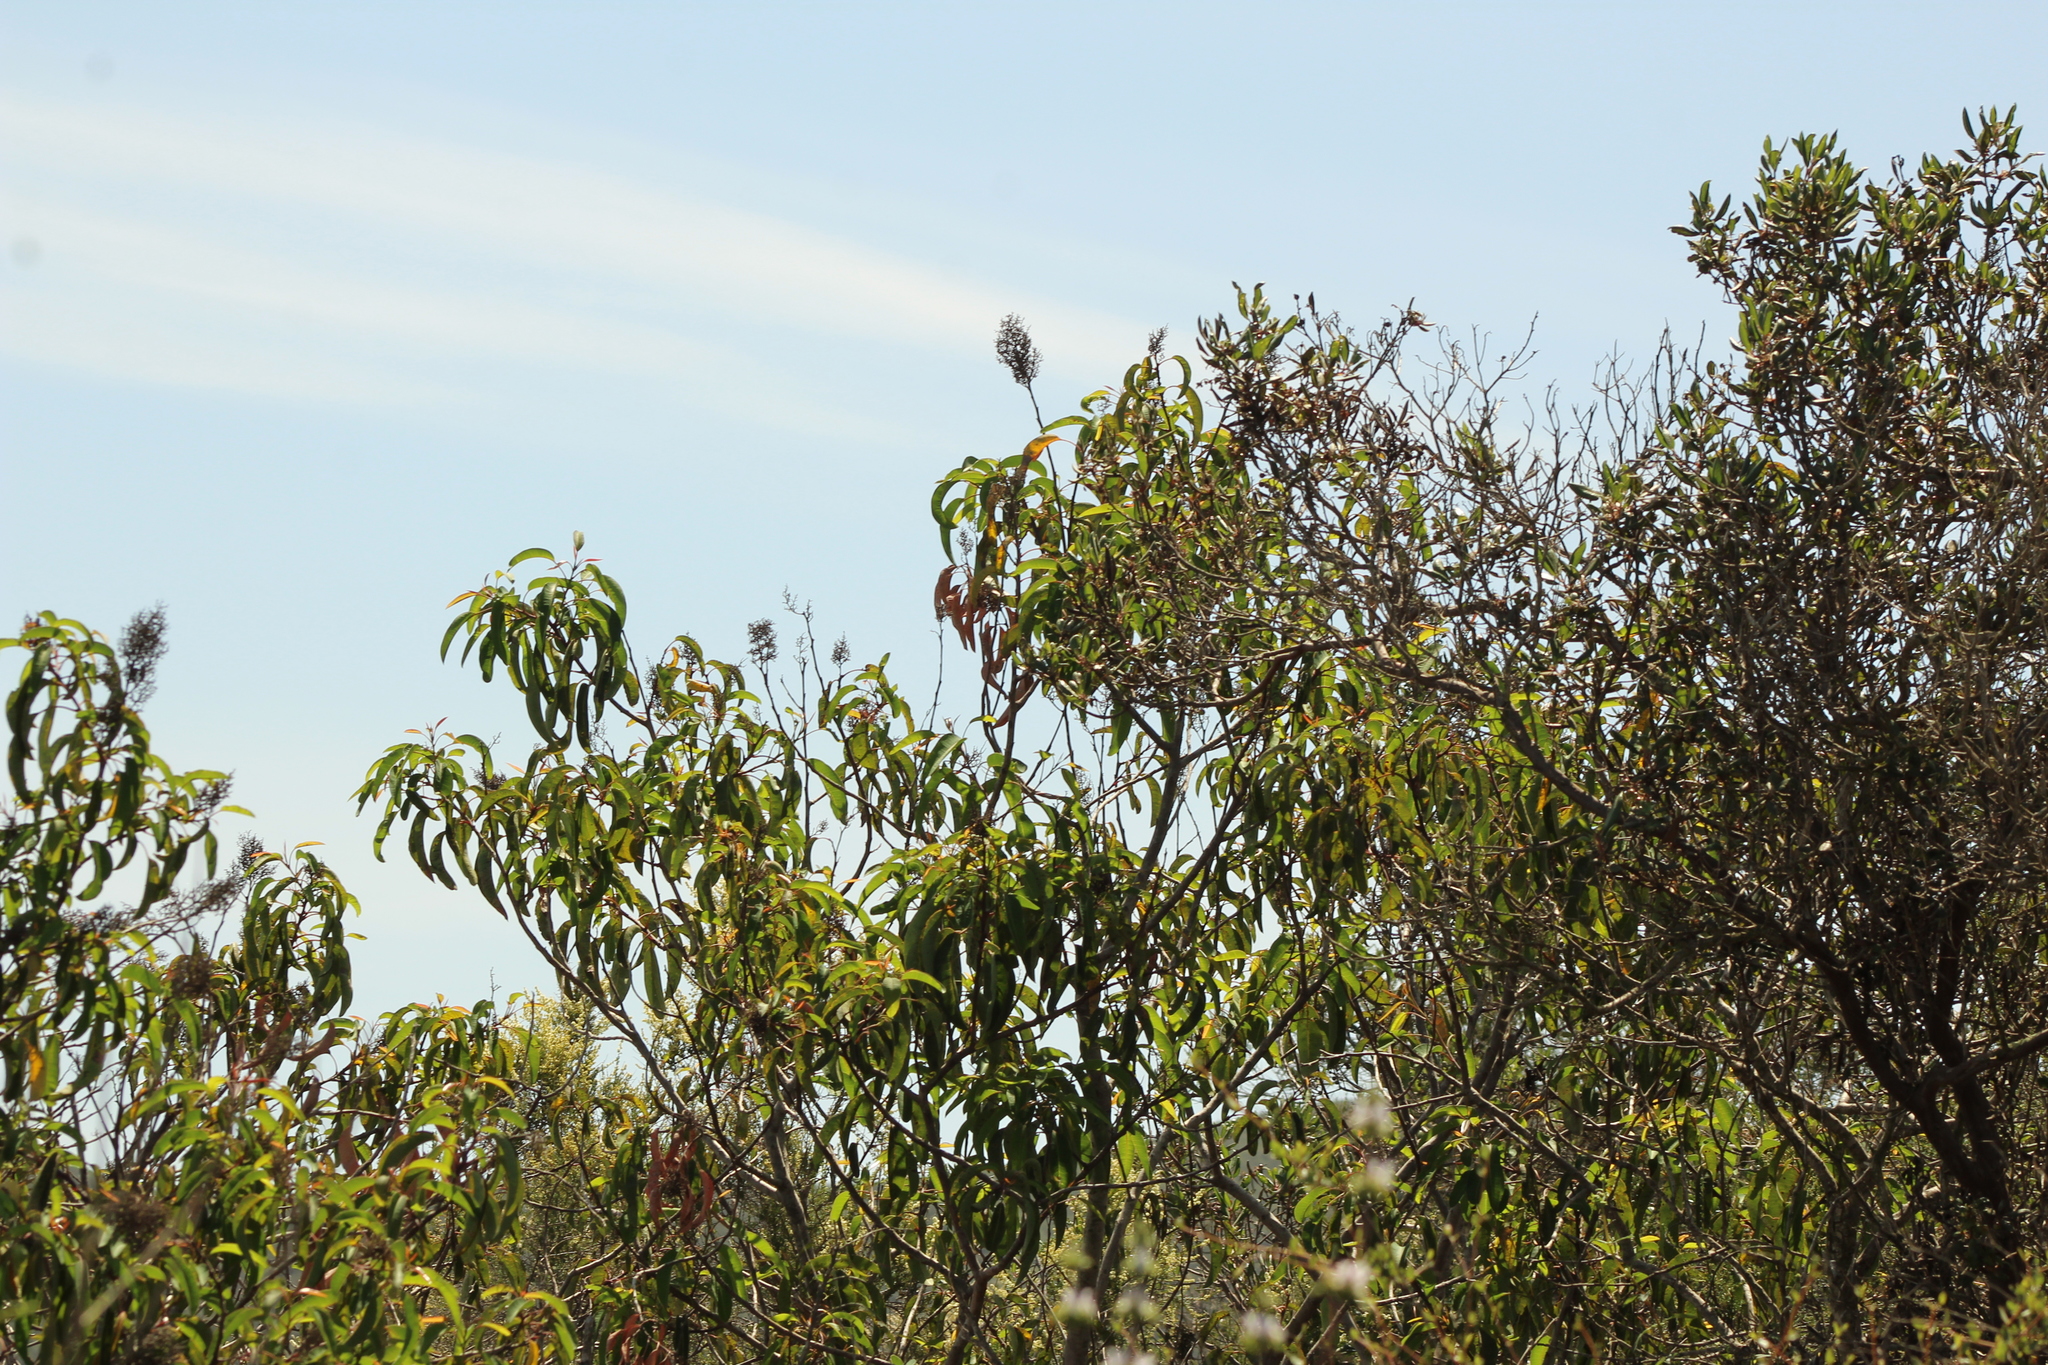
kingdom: Plantae
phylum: Tracheophyta
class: Magnoliopsida
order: Sapindales
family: Anacardiaceae
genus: Malosma
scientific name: Malosma laurina
